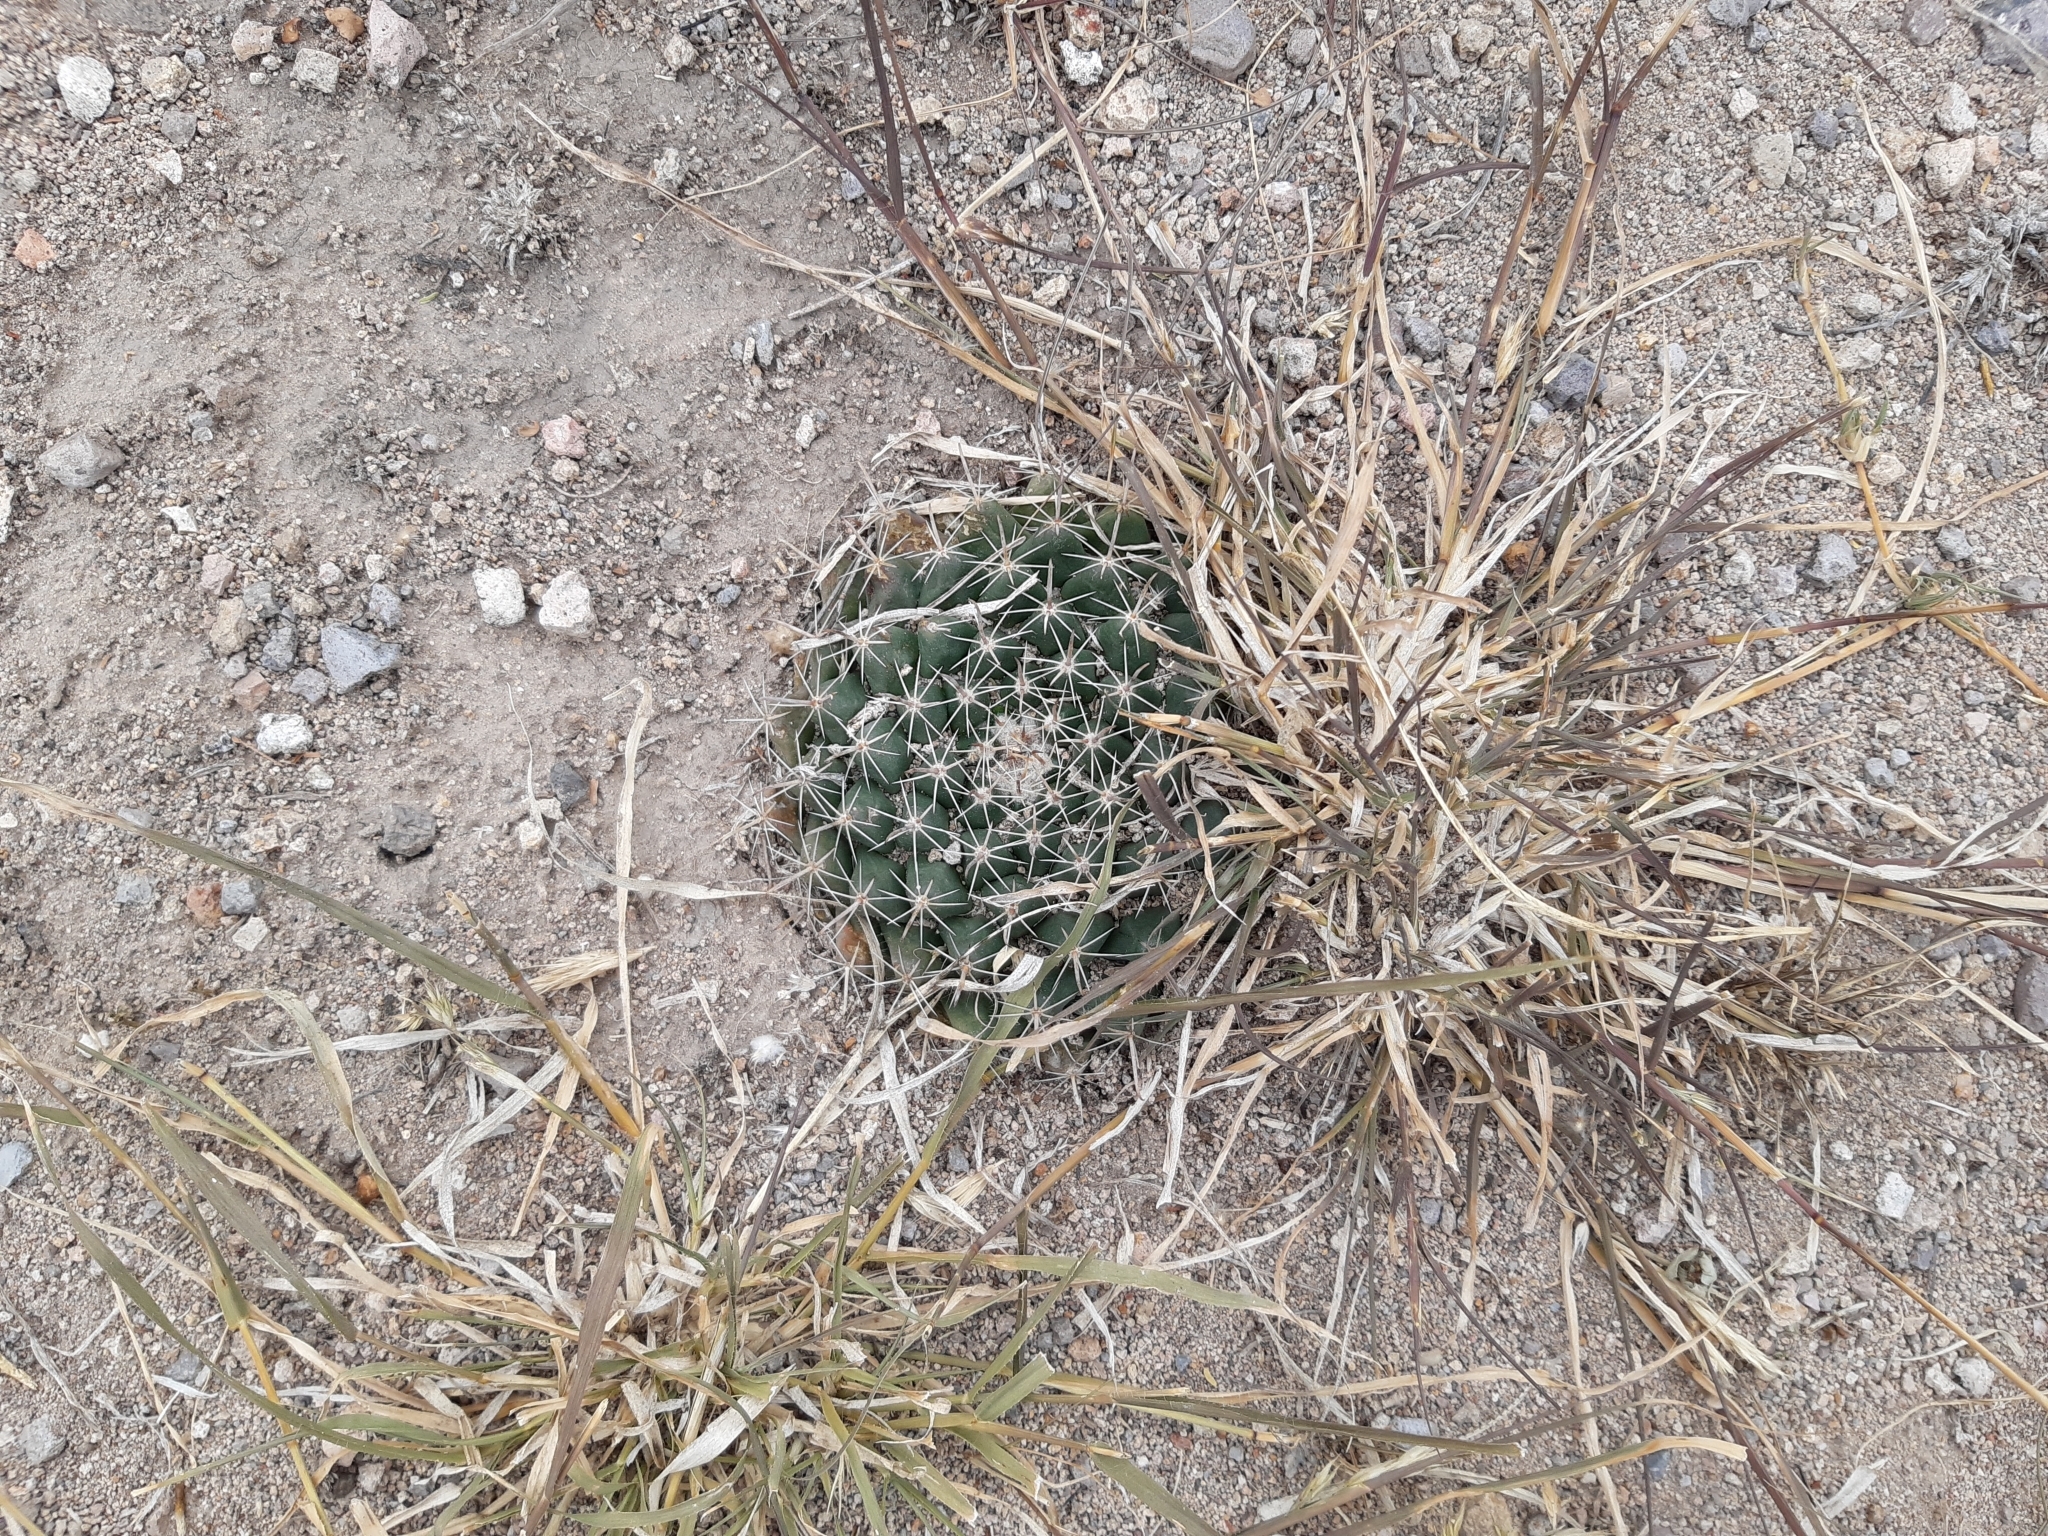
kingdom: Plantae
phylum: Tracheophyta
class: Magnoliopsida
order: Caryophyllales
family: Cactaceae
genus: Mammillaria
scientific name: Mammillaria uncinata
